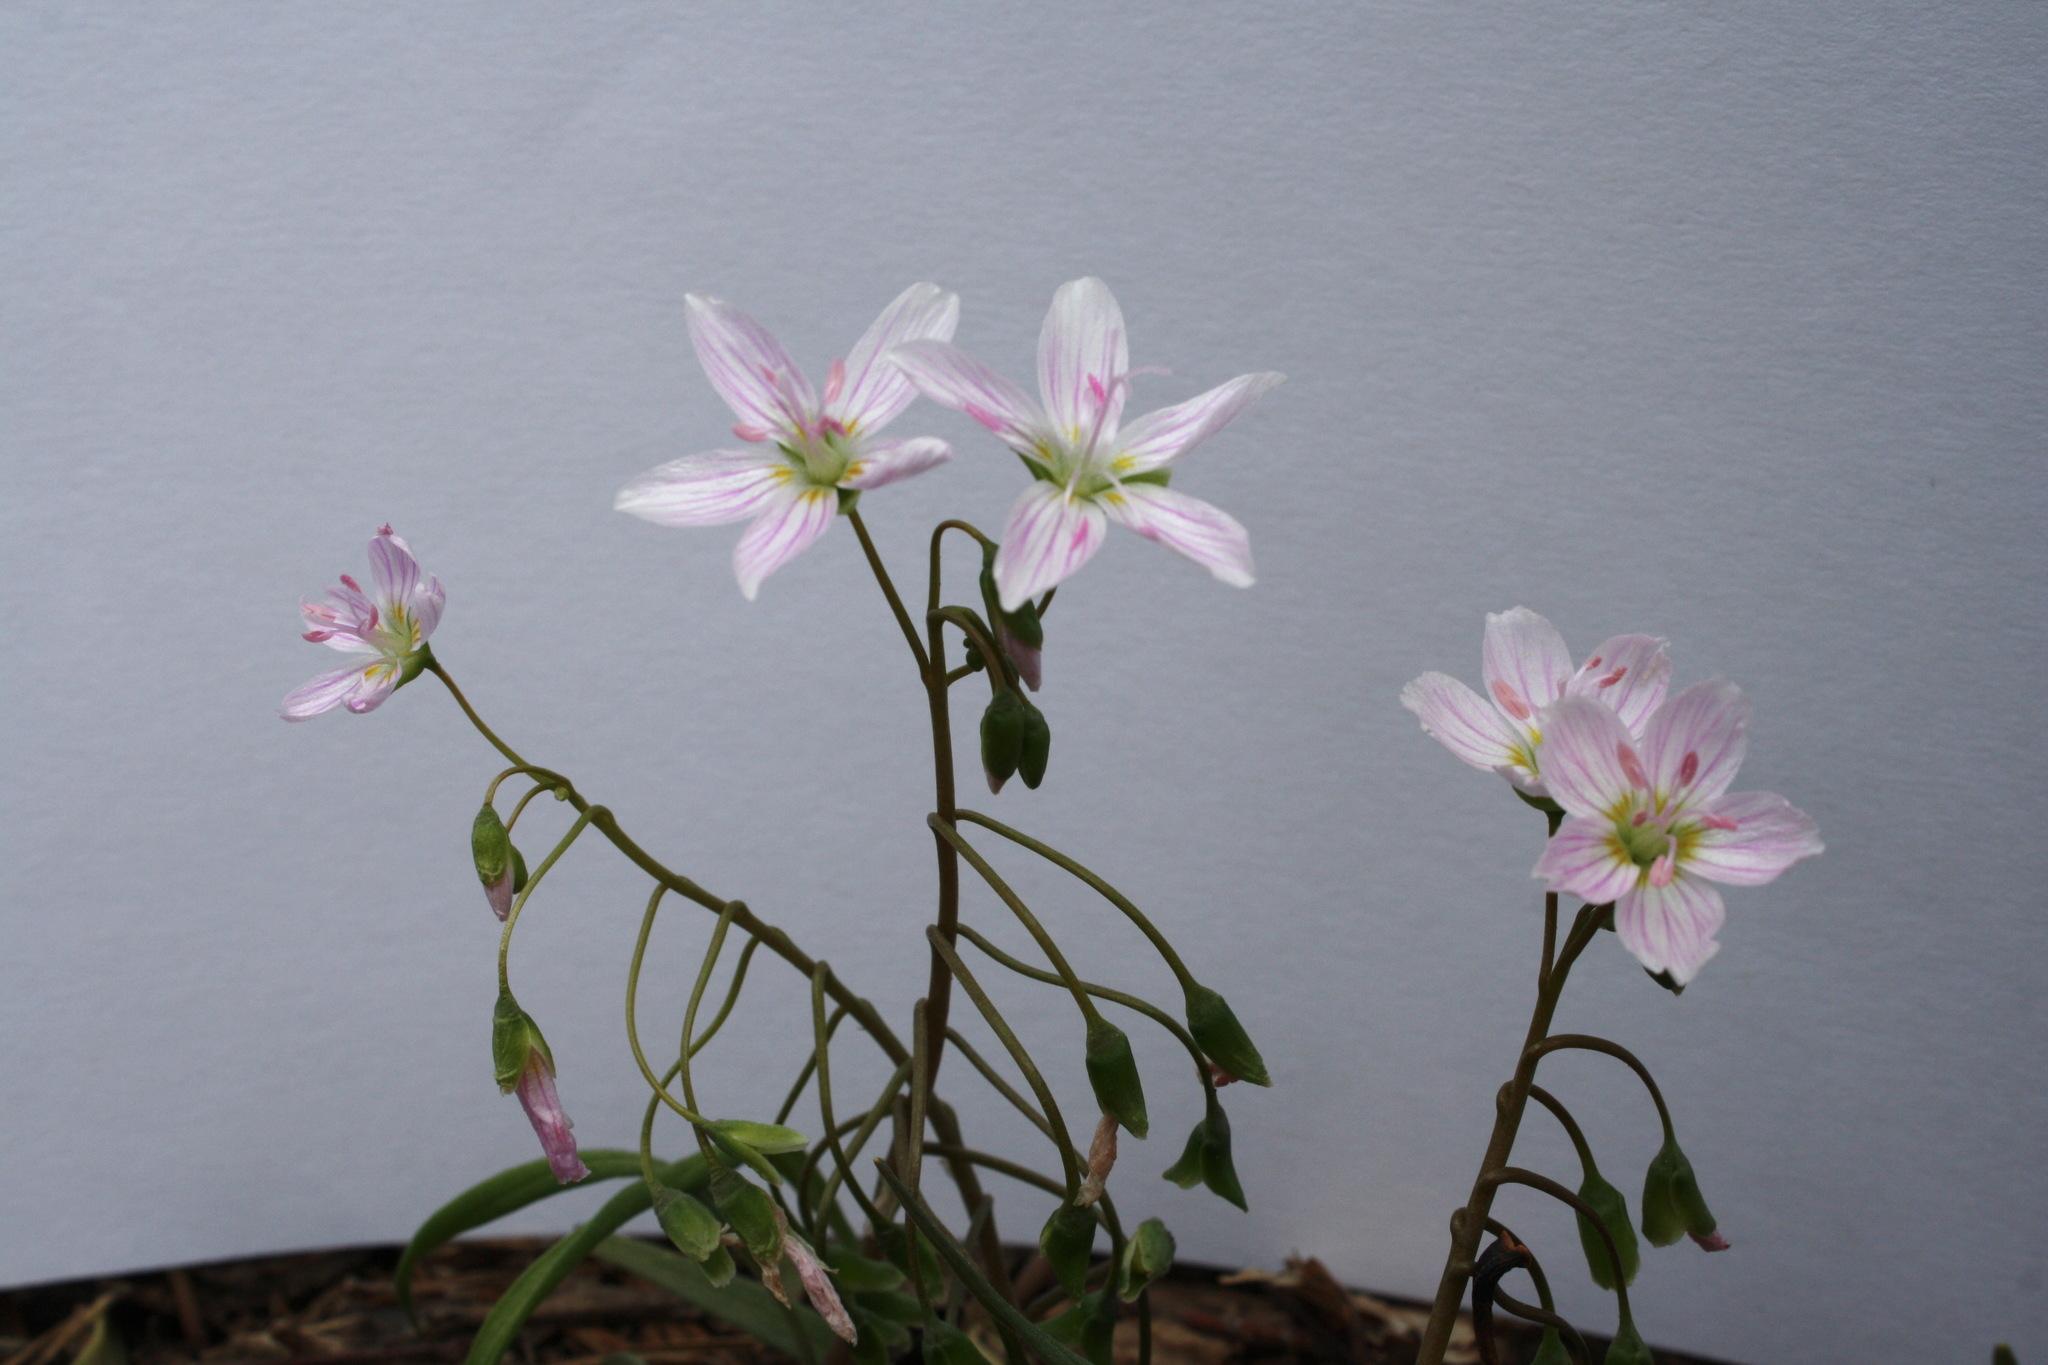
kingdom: Plantae
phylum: Tracheophyta
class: Magnoliopsida
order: Caryophyllales
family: Montiaceae
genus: Claytonia
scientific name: Claytonia virginica
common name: Virginia springbeauty
